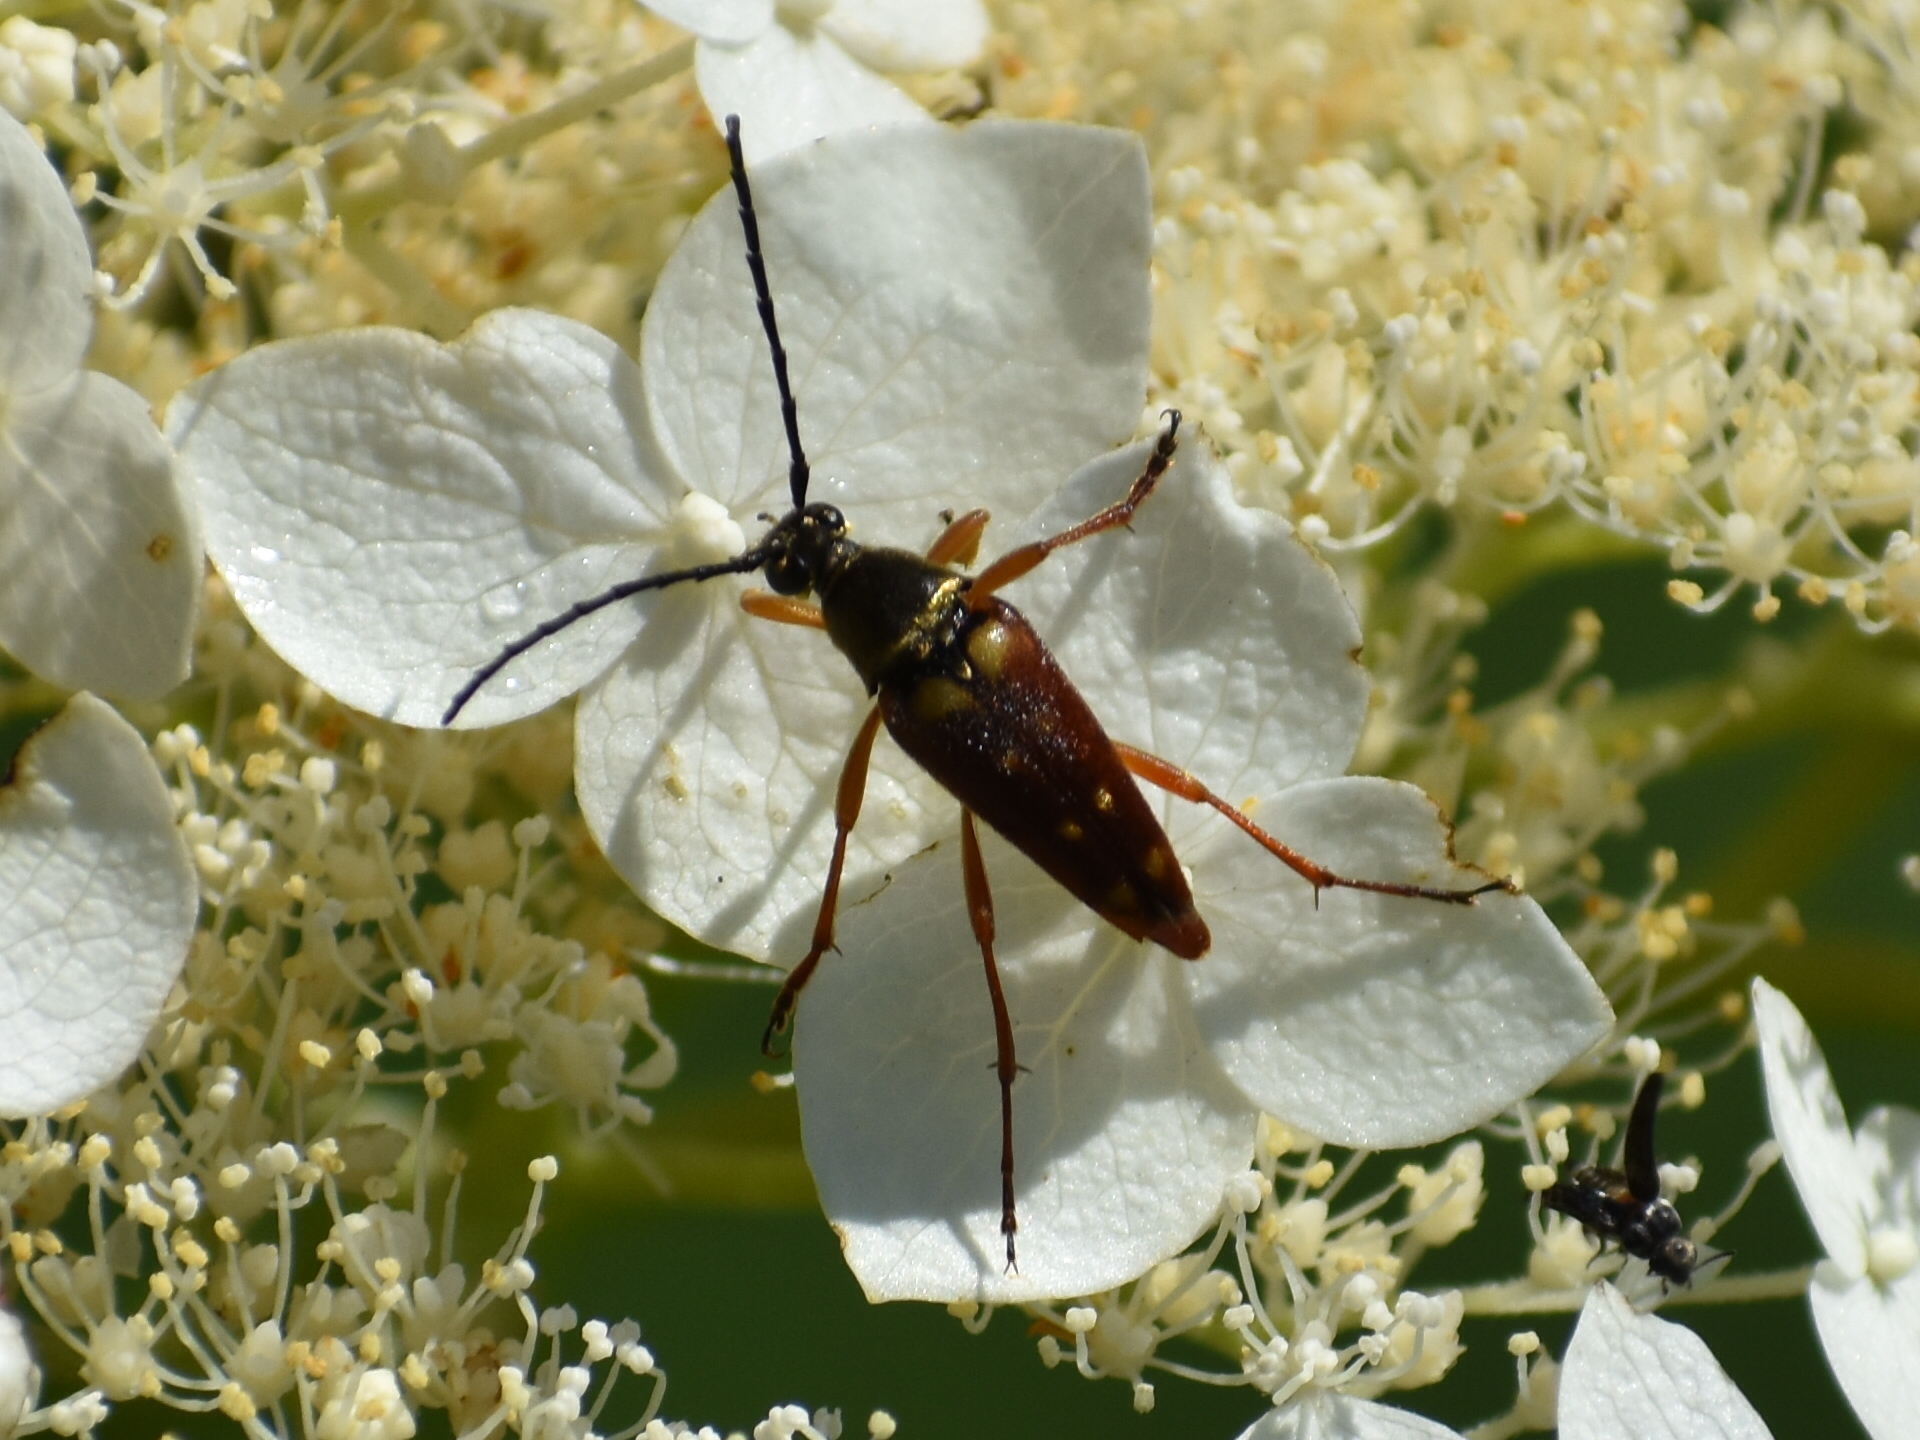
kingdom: Animalia
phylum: Arthropoda
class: Insecta
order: Coleoptera
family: Cerambycidae
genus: Typocerus
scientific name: Typocerus velutinus
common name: Banded longhorn beetle
